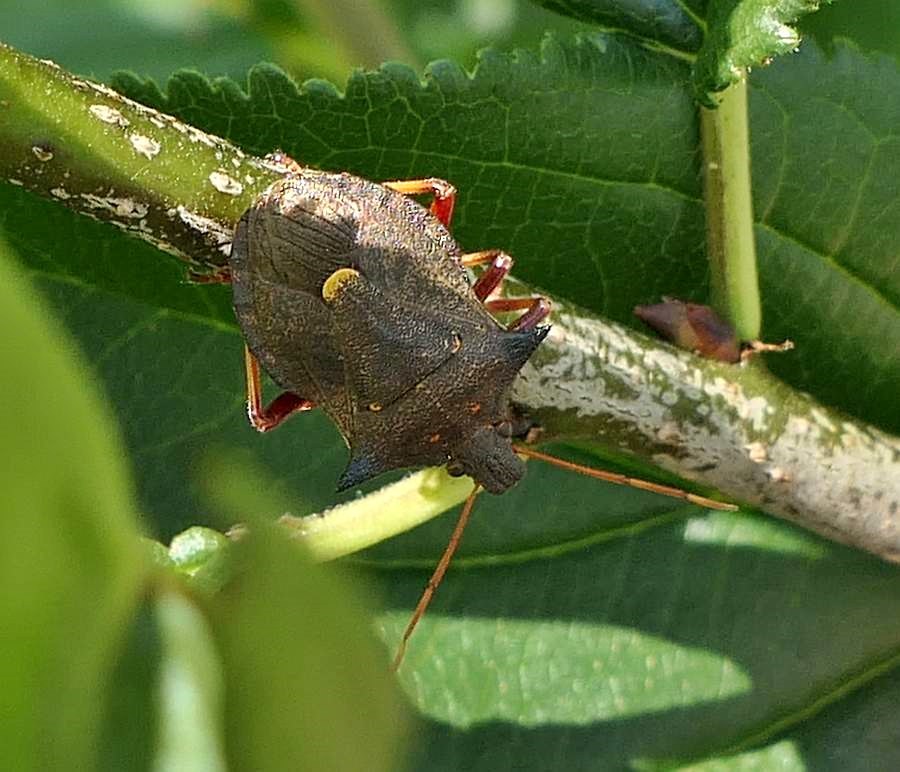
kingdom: Animalia
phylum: Arthropoda
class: Insecta
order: Hemiptera
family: Pentatomidae
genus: Picromerus
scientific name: Picromerus bidens
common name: Spiked shieldbug
